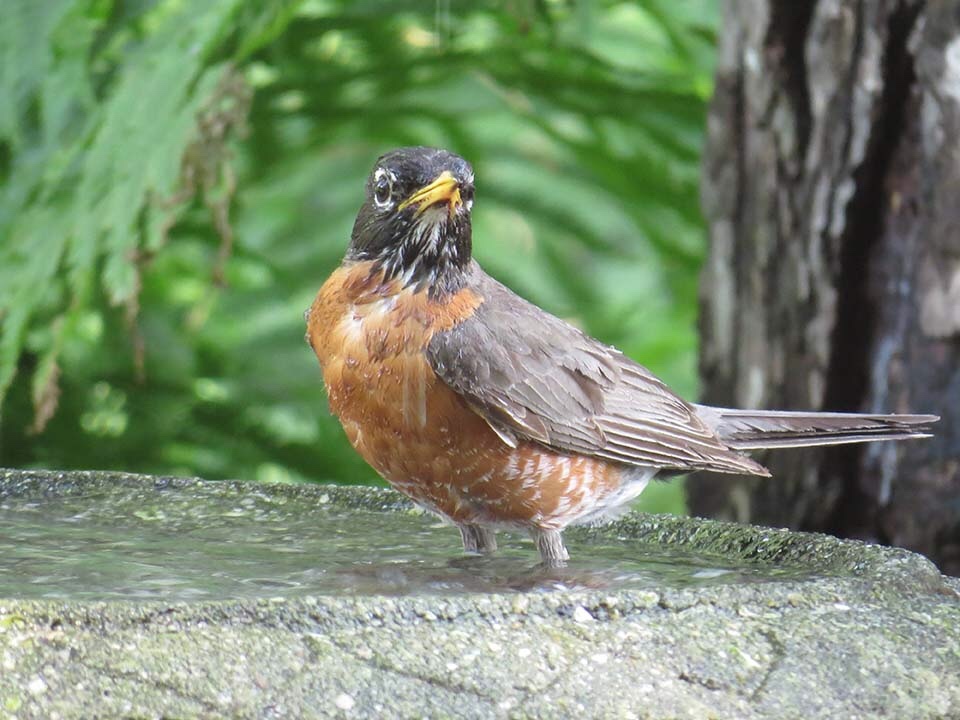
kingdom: Animalia
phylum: Chordata
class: Aves
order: Passeriformes
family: Turdidae
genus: Turdus
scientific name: Turdus migratorius
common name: American robin
